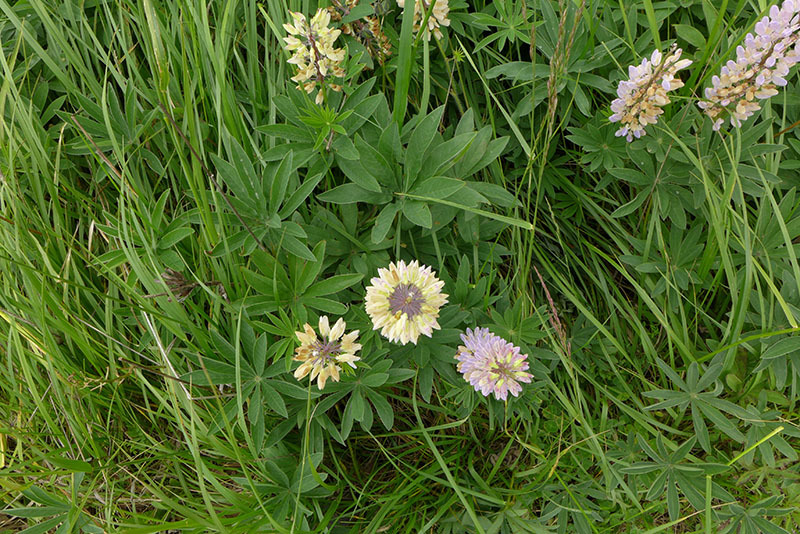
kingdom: Plantae
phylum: Tracheophyta
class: Magnoliopsida
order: Fabales
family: Fabaceae
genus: Lupinus
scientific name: Lupinus polyphyllus
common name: Garden lupin
